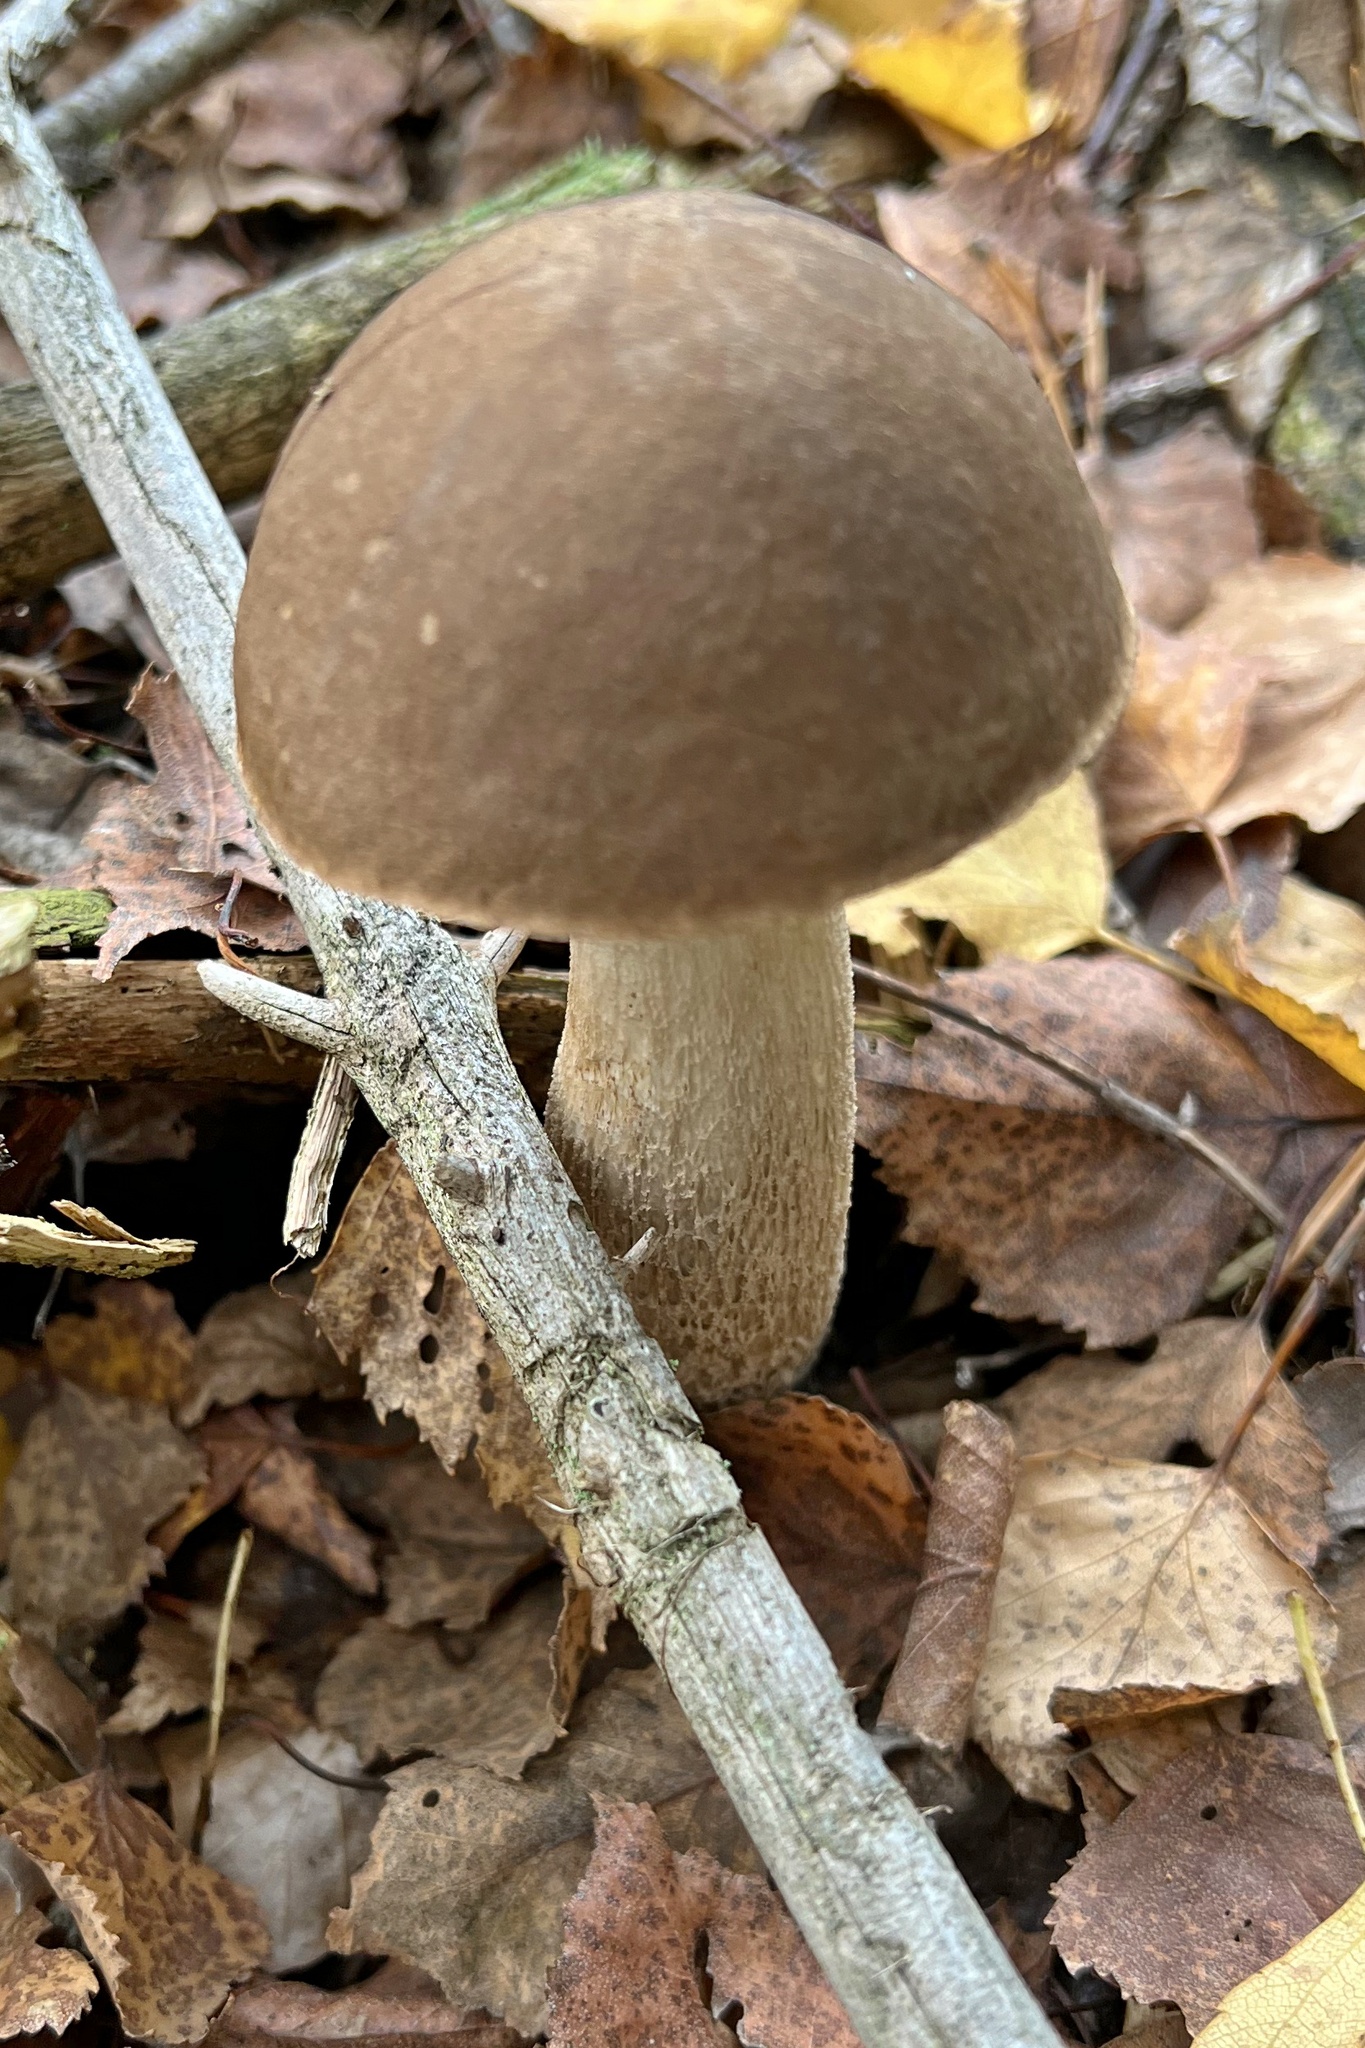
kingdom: Fungi
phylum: Basidiomycota
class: Agaricomycetes
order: Boletales
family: Boletaceae
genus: Leccinum
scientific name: Leccinum scabrum
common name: Blushing bolete
